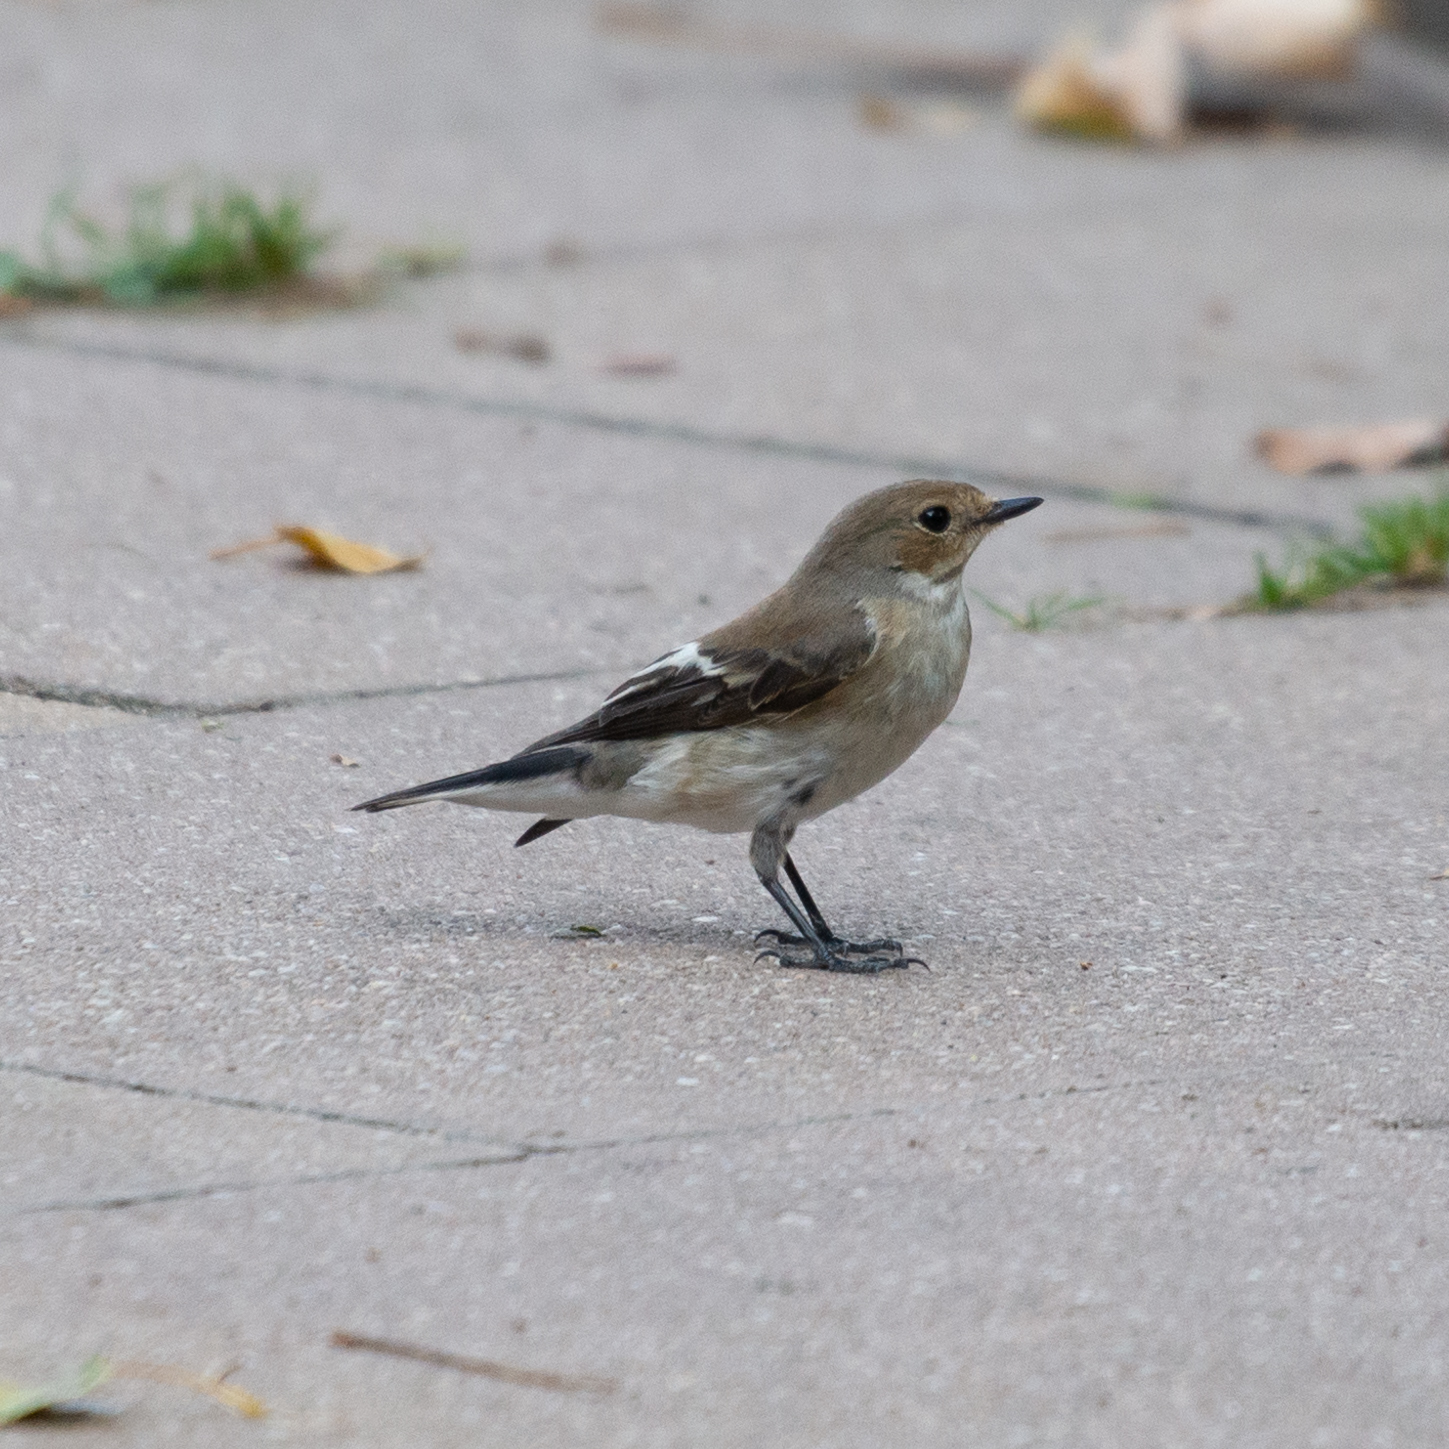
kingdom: Animalia
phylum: Chordata
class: Aves
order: Passeriformes
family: Muscicapidae
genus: Ficedula
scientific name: Ficedula hypoleuca
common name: European pied flycatcher
